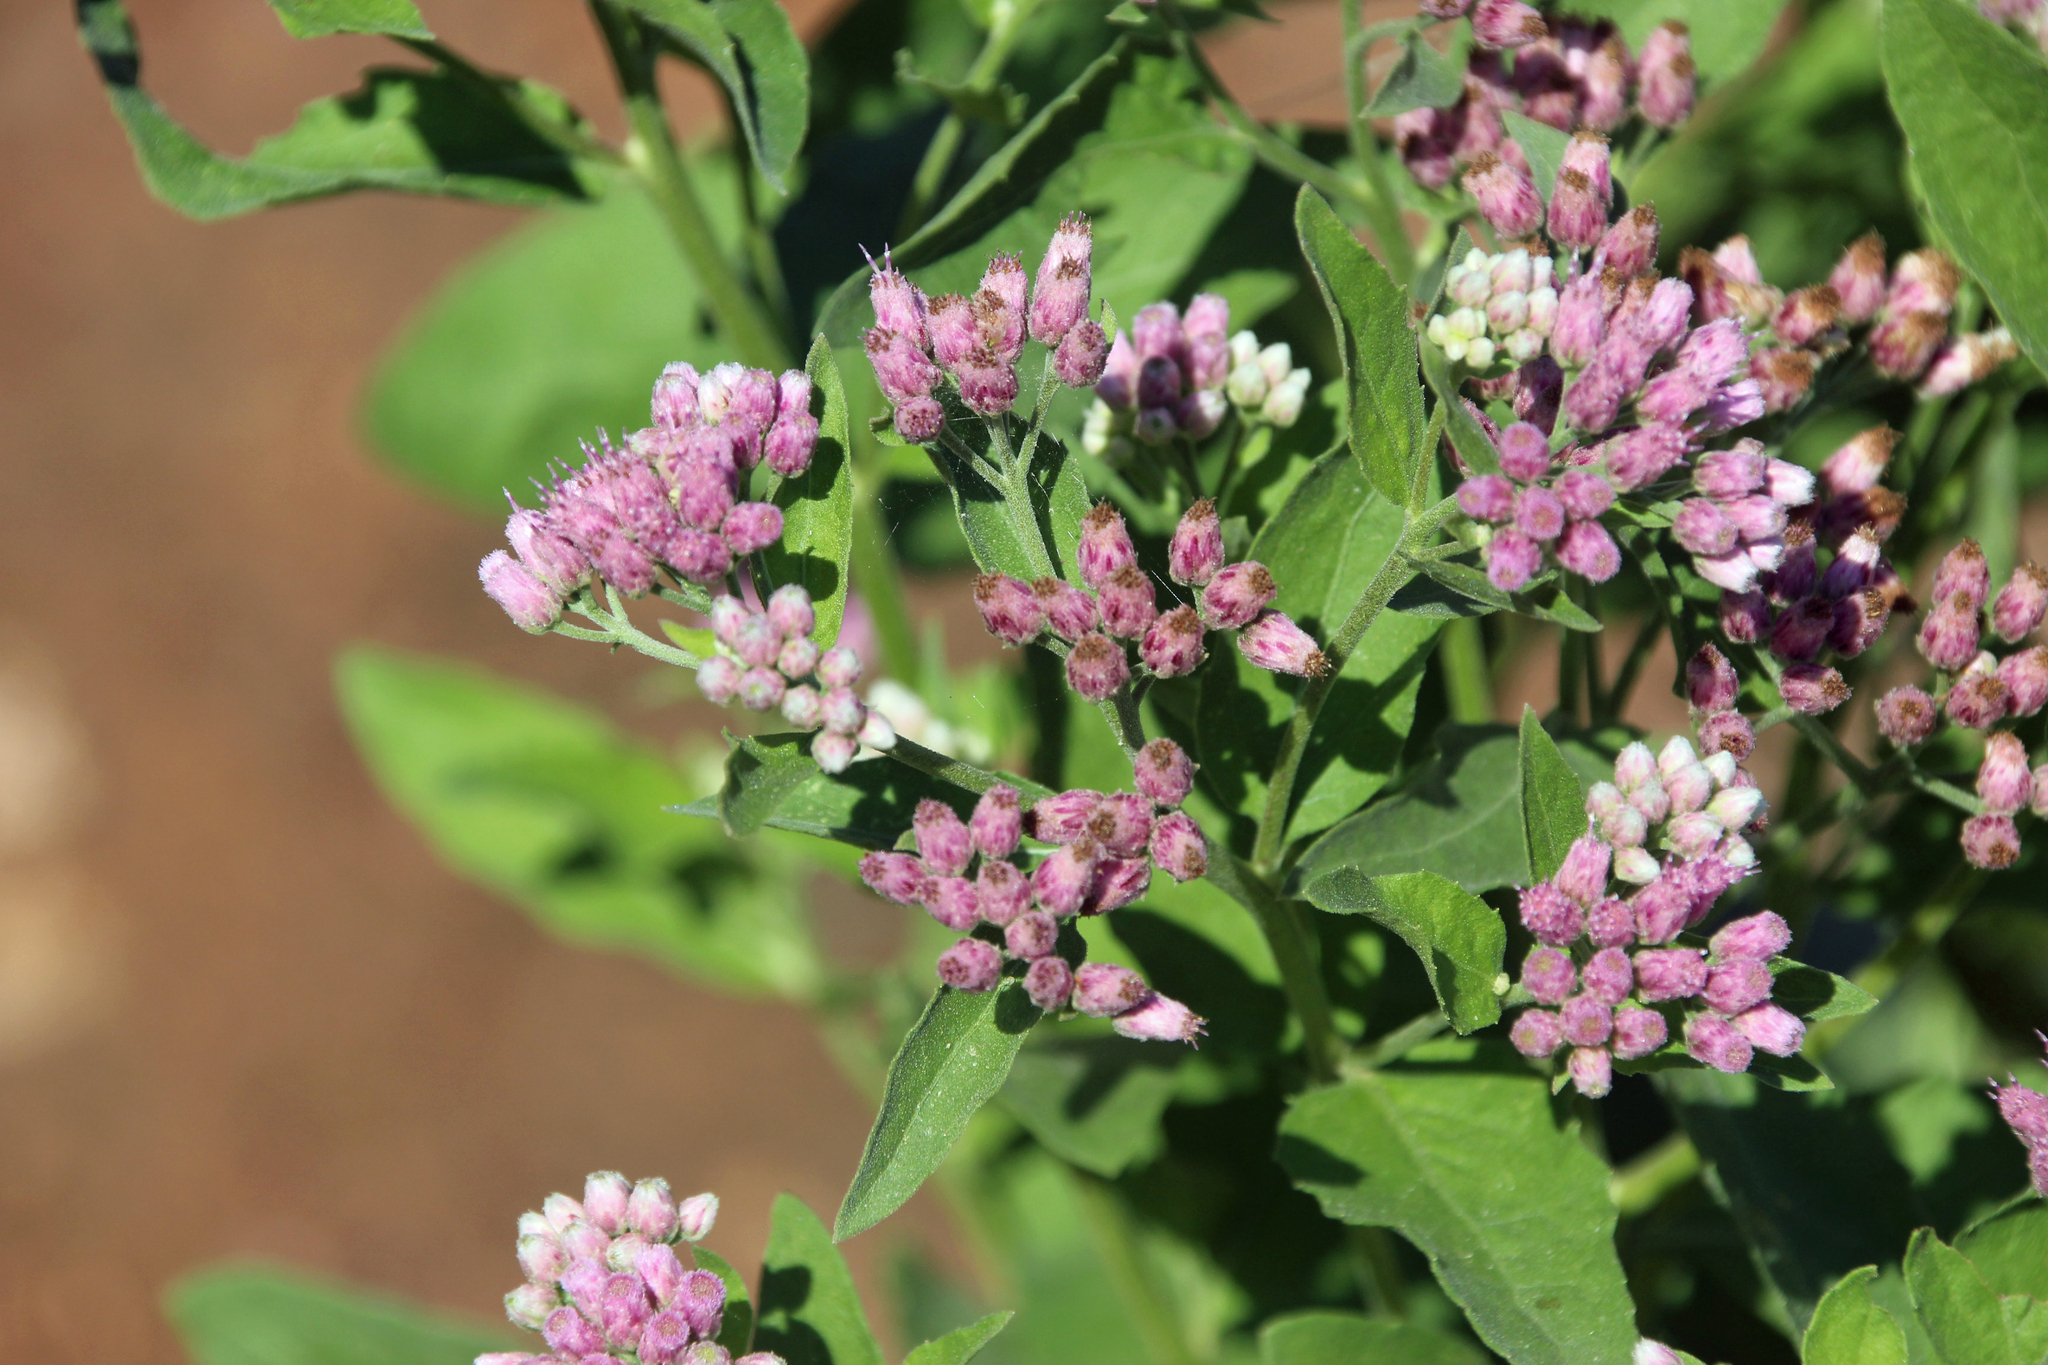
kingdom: Plantae
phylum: Tracheophyta
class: Magnoliopsida
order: Asterales
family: Asteraceae
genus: Pluchea
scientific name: Pluchea camphorata
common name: Camphor pluchea
